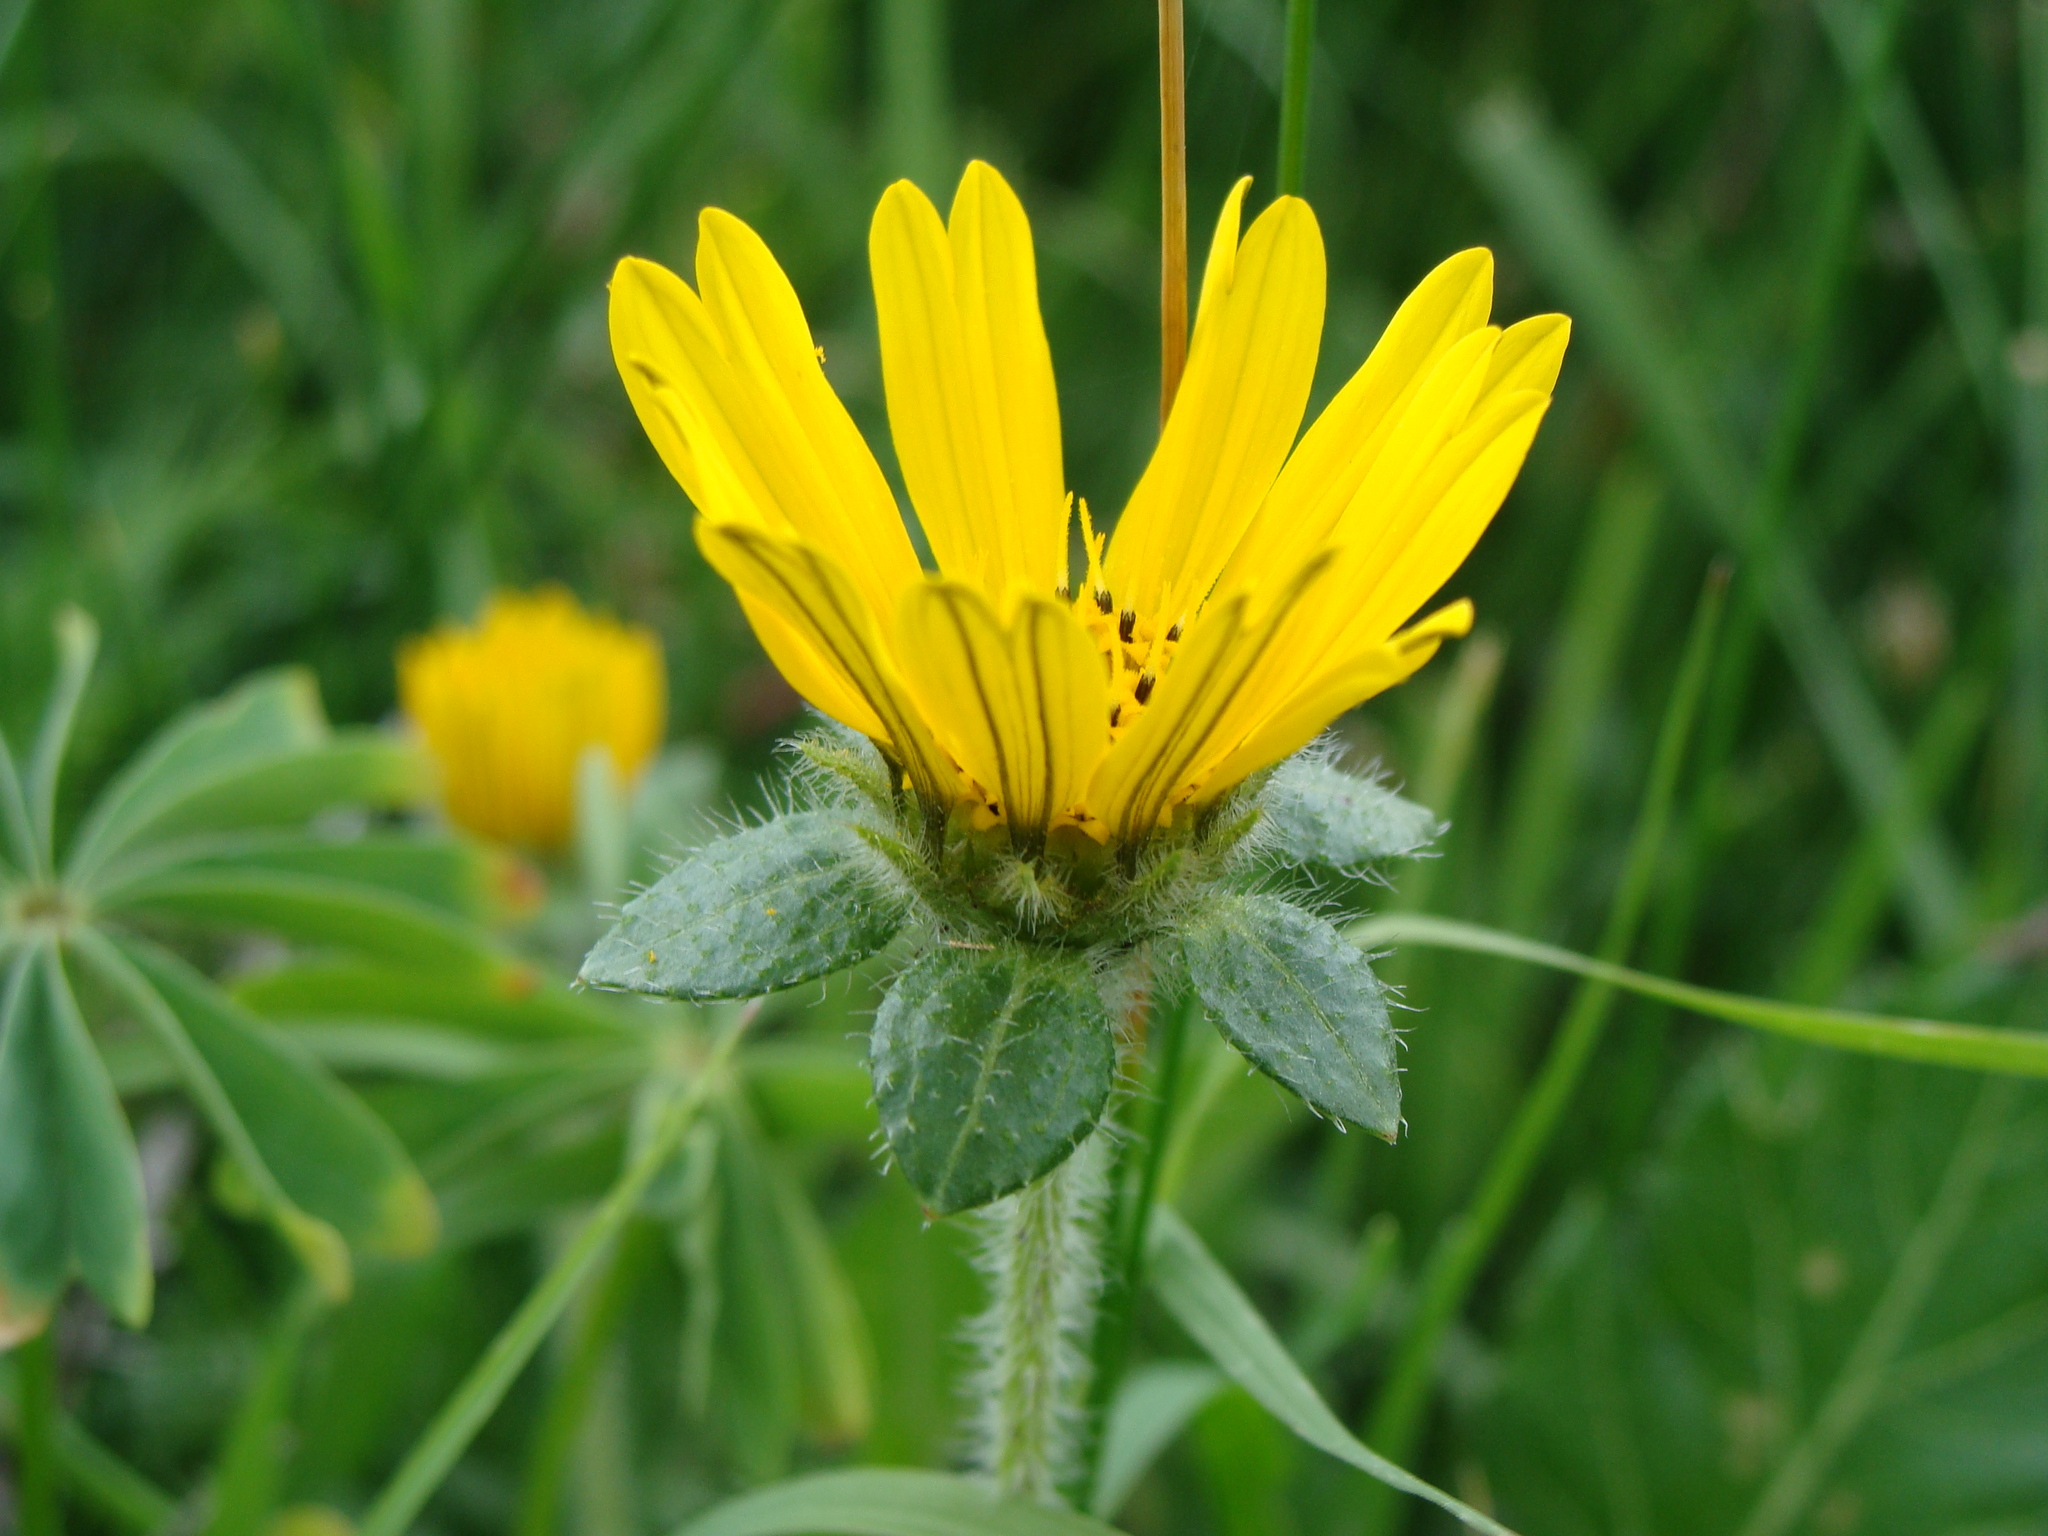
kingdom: Plantae
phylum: Tracheophyta
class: Magnoliopsida
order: Asterales
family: Asteraceae
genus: Dugesia
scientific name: Dugesia mexicana
